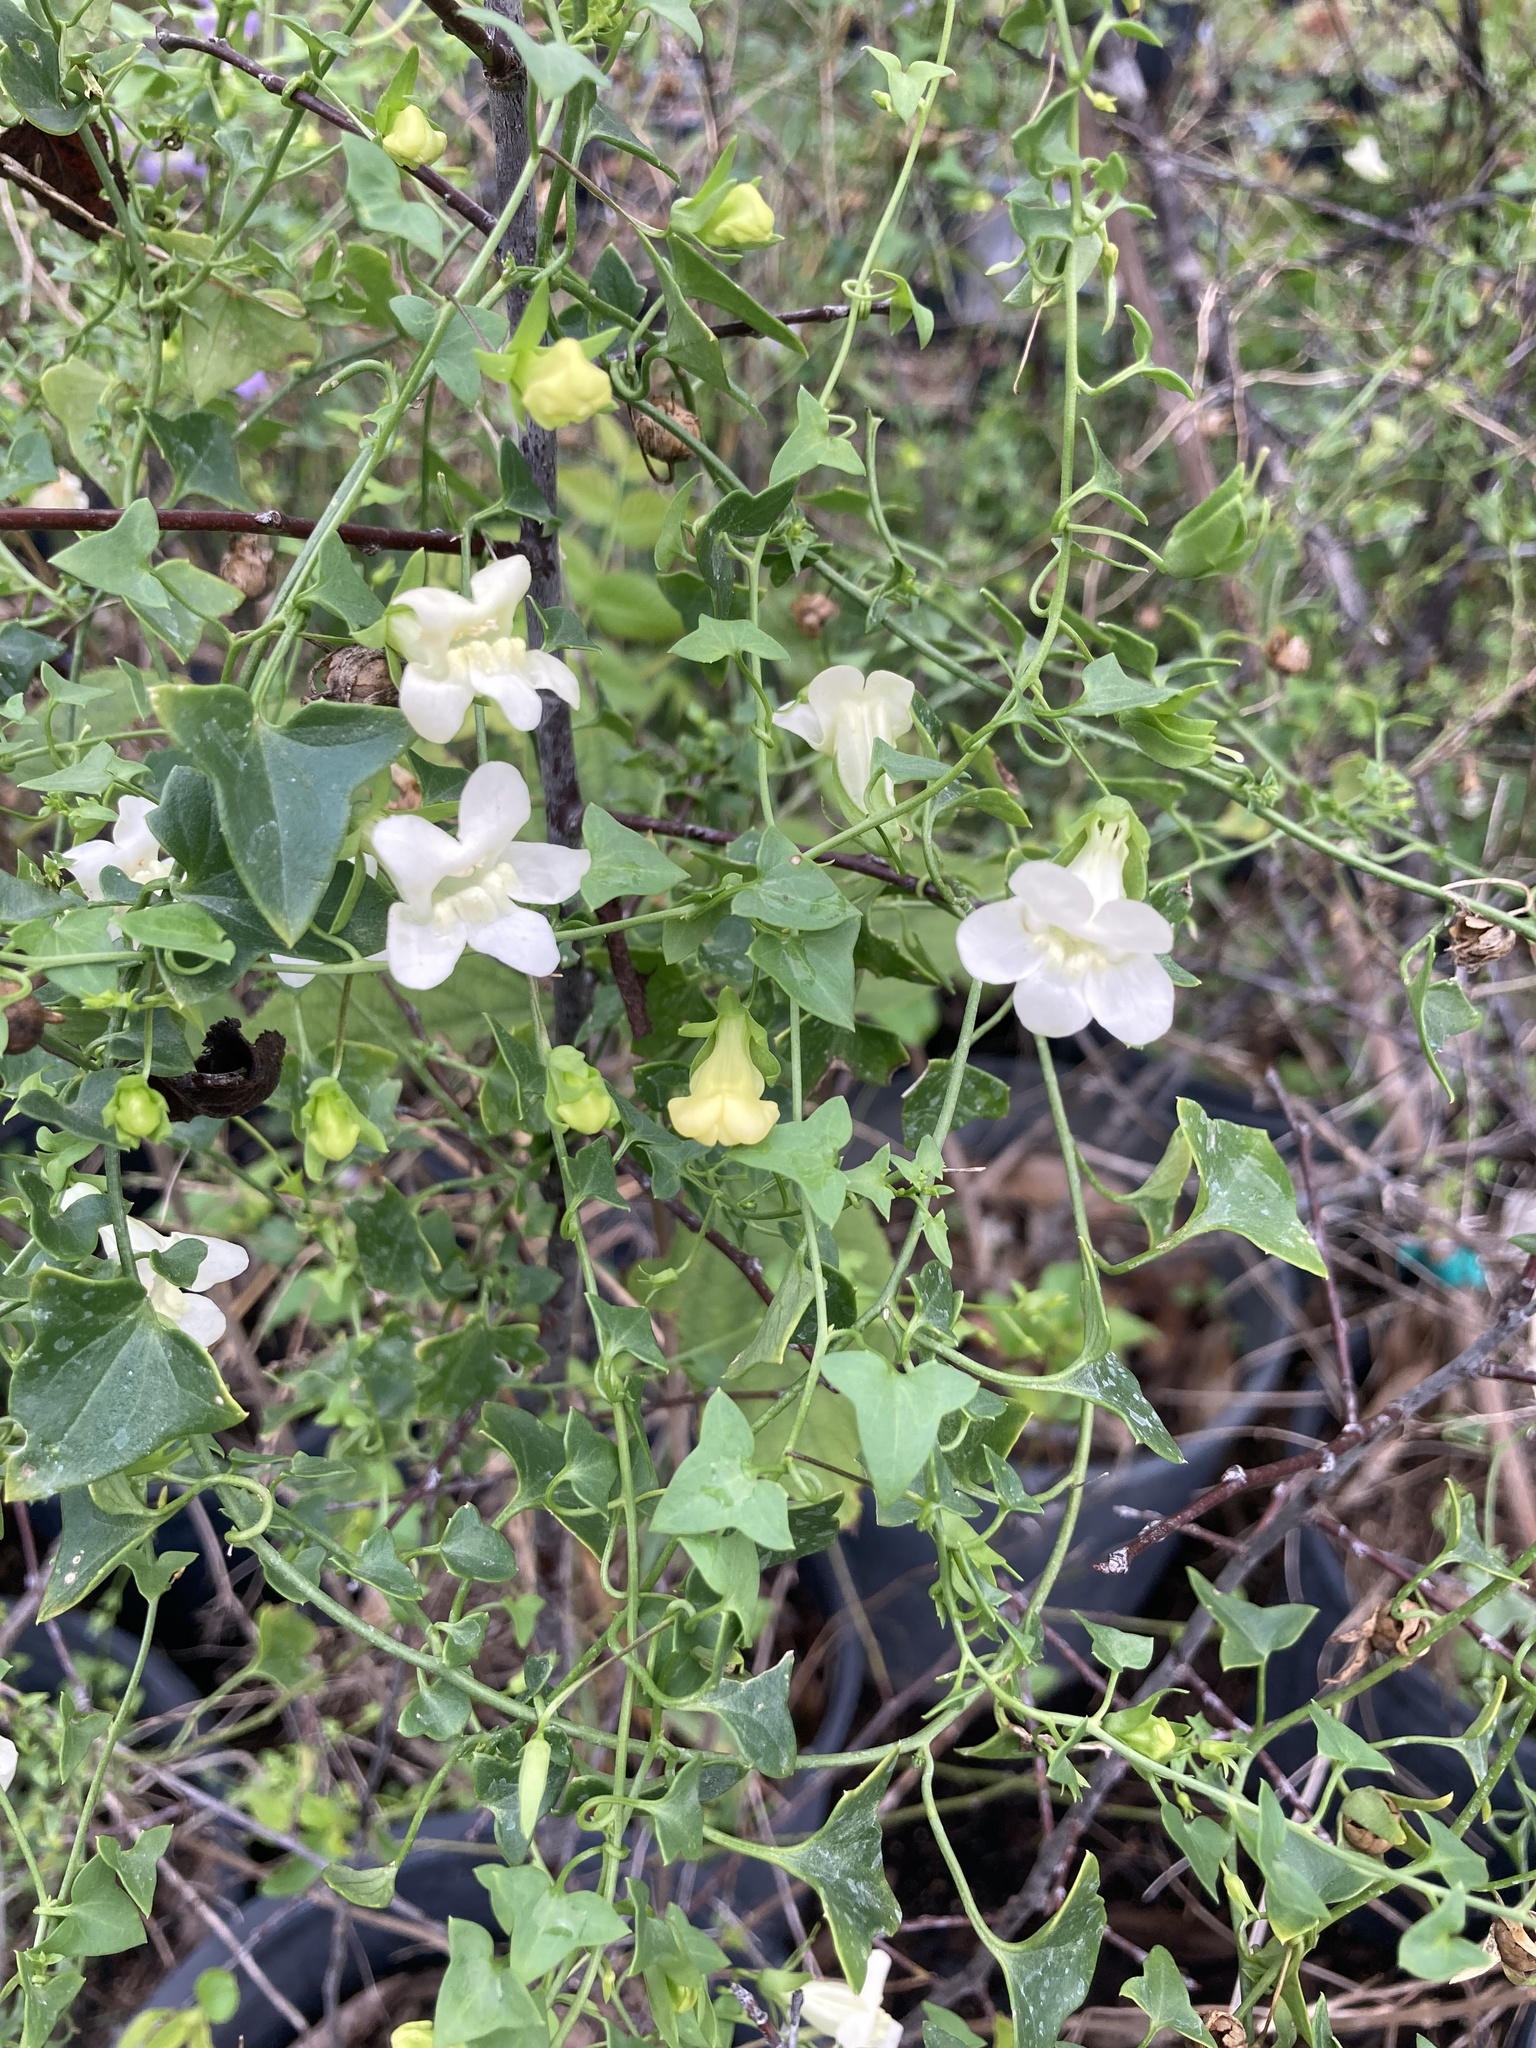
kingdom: Plantae
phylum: Tracheophyta
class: Magnoliopsida
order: Lamiales
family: Plantaginaceae
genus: Maurandella
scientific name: Maurandella antirrhiniflora
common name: Violet twining-snapdragon
